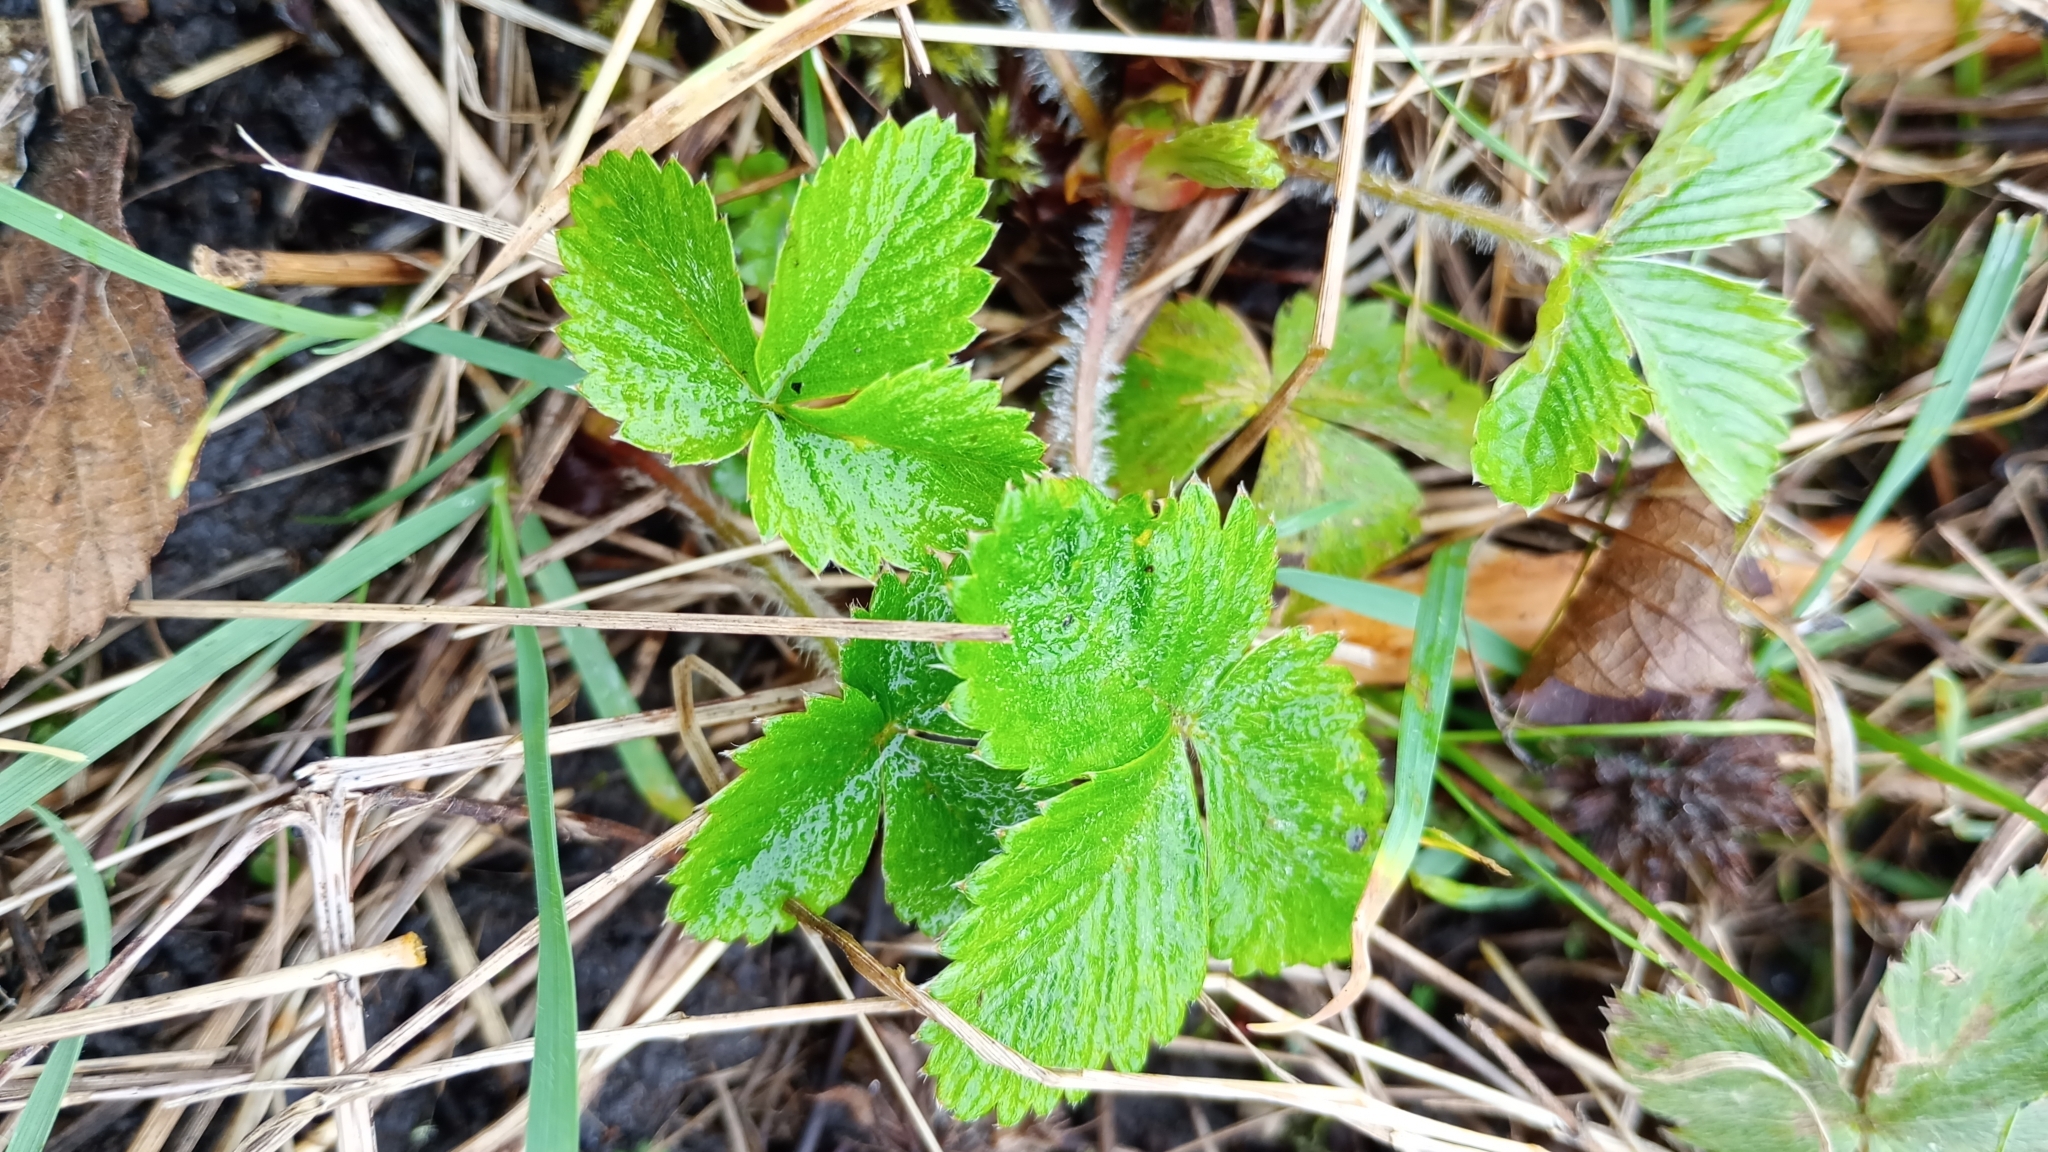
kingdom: Plantae
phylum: Tracheophyta
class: Magnoliopsida
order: Rosales
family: Rosaceae
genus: Fragaria
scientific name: Fragaria vesca
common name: Wild strawberry
